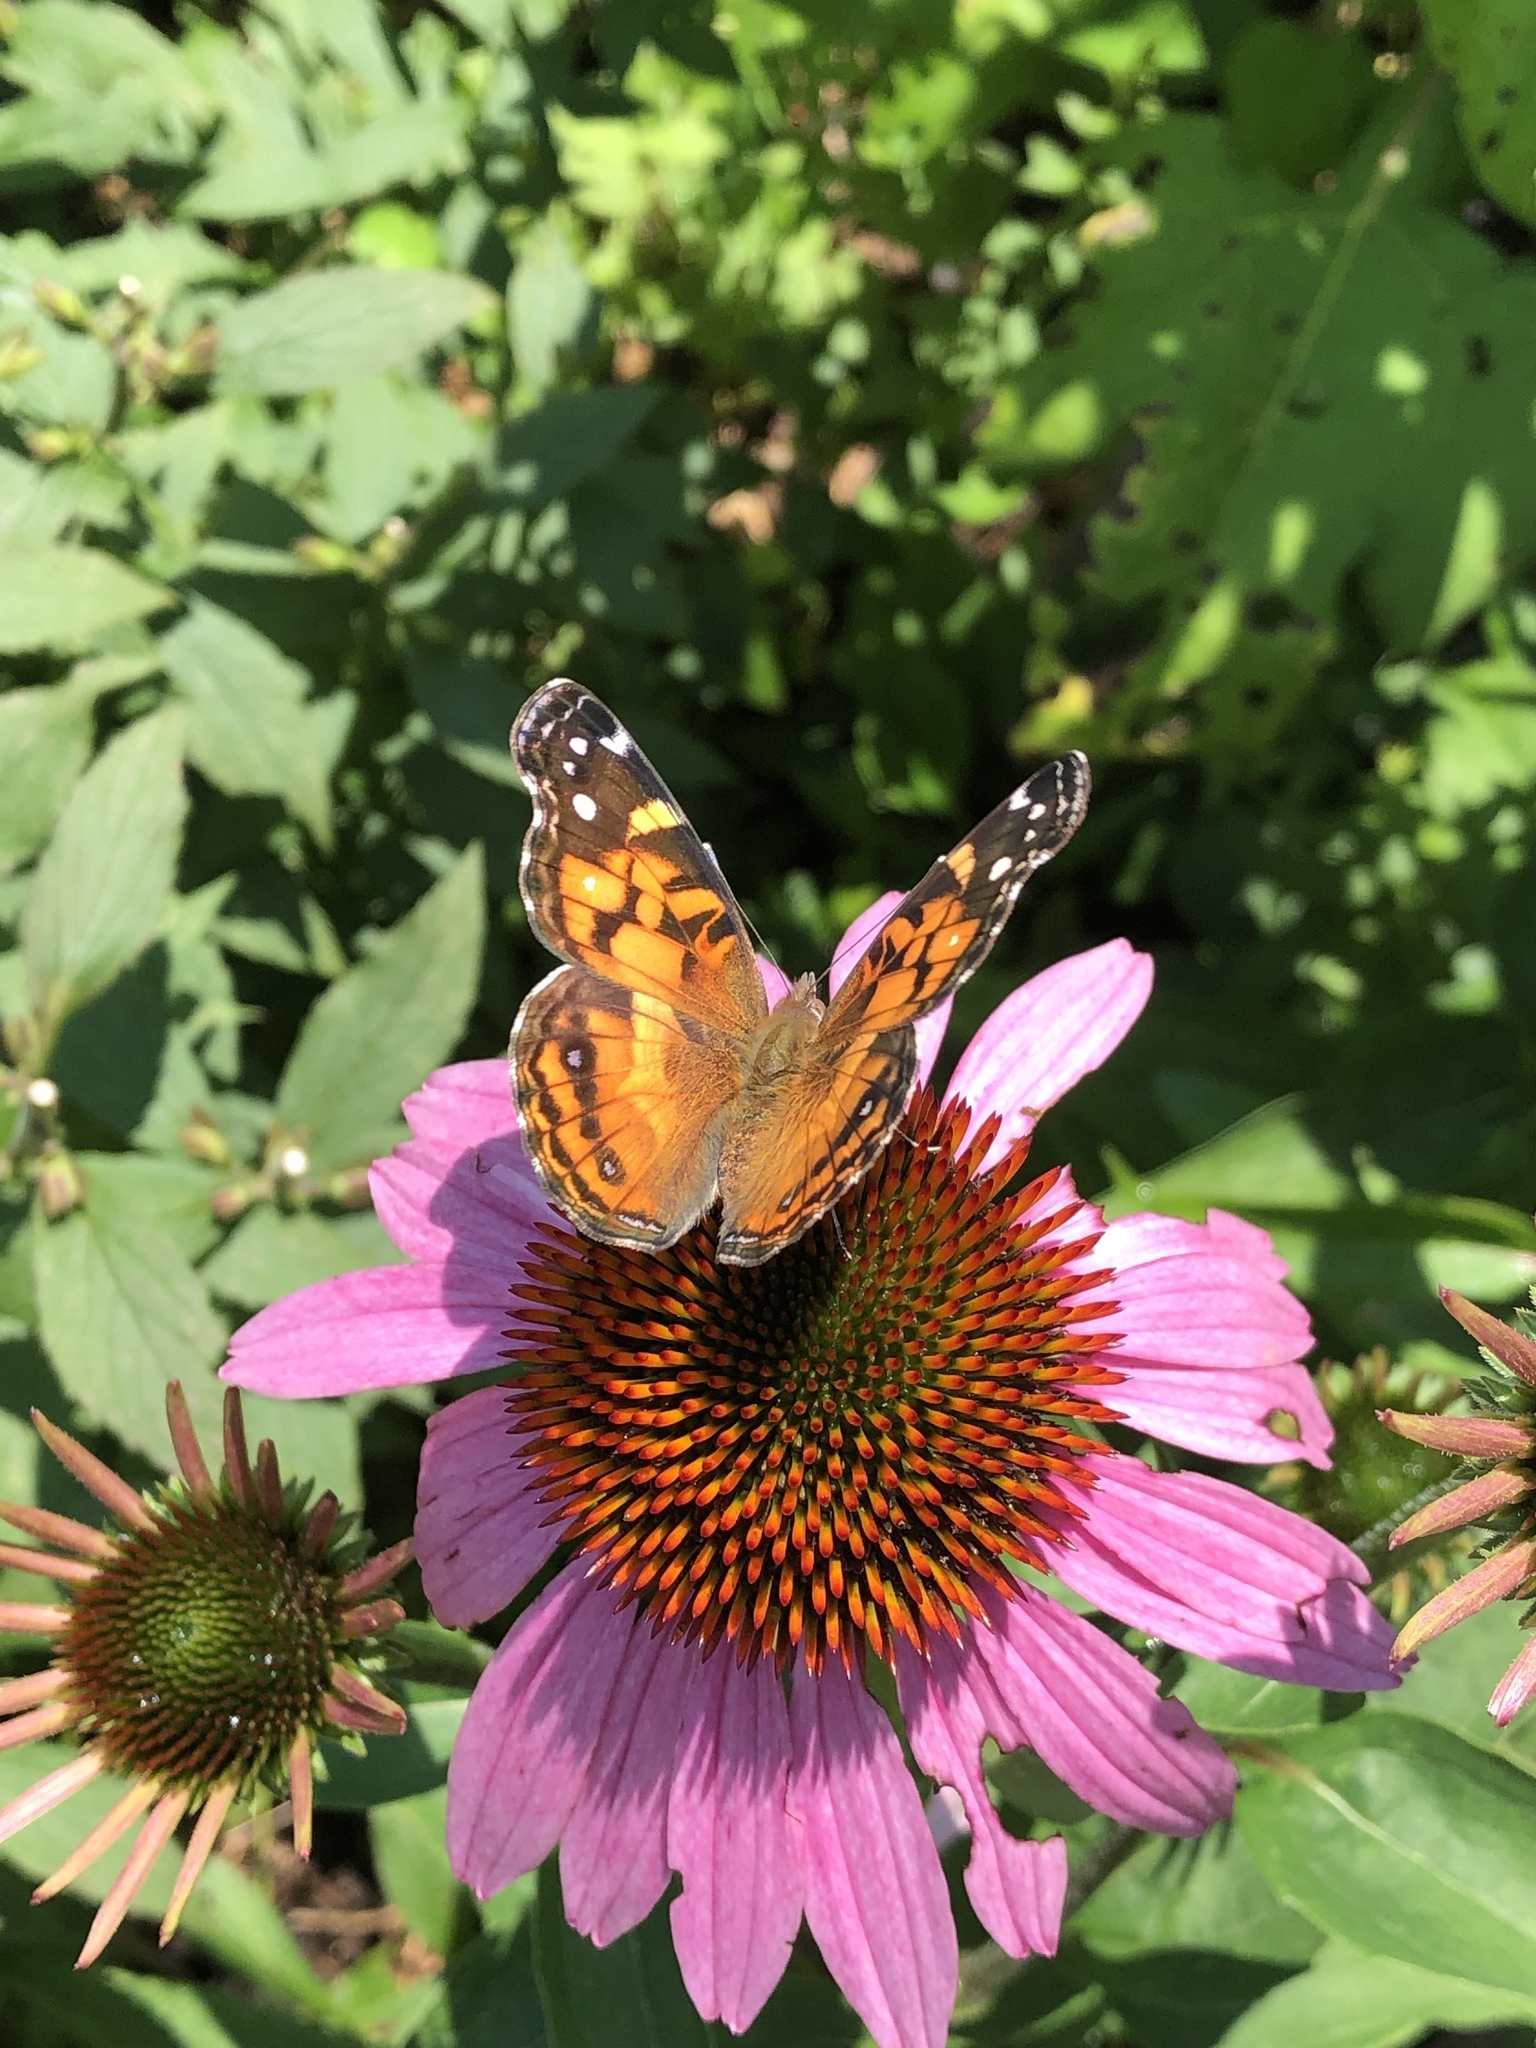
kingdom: Animalia
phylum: Arthropoda
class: Insecta
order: Lepidoptera
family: Nymphalidae
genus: Vanessa
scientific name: Vanessa virginiensis
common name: American lady
